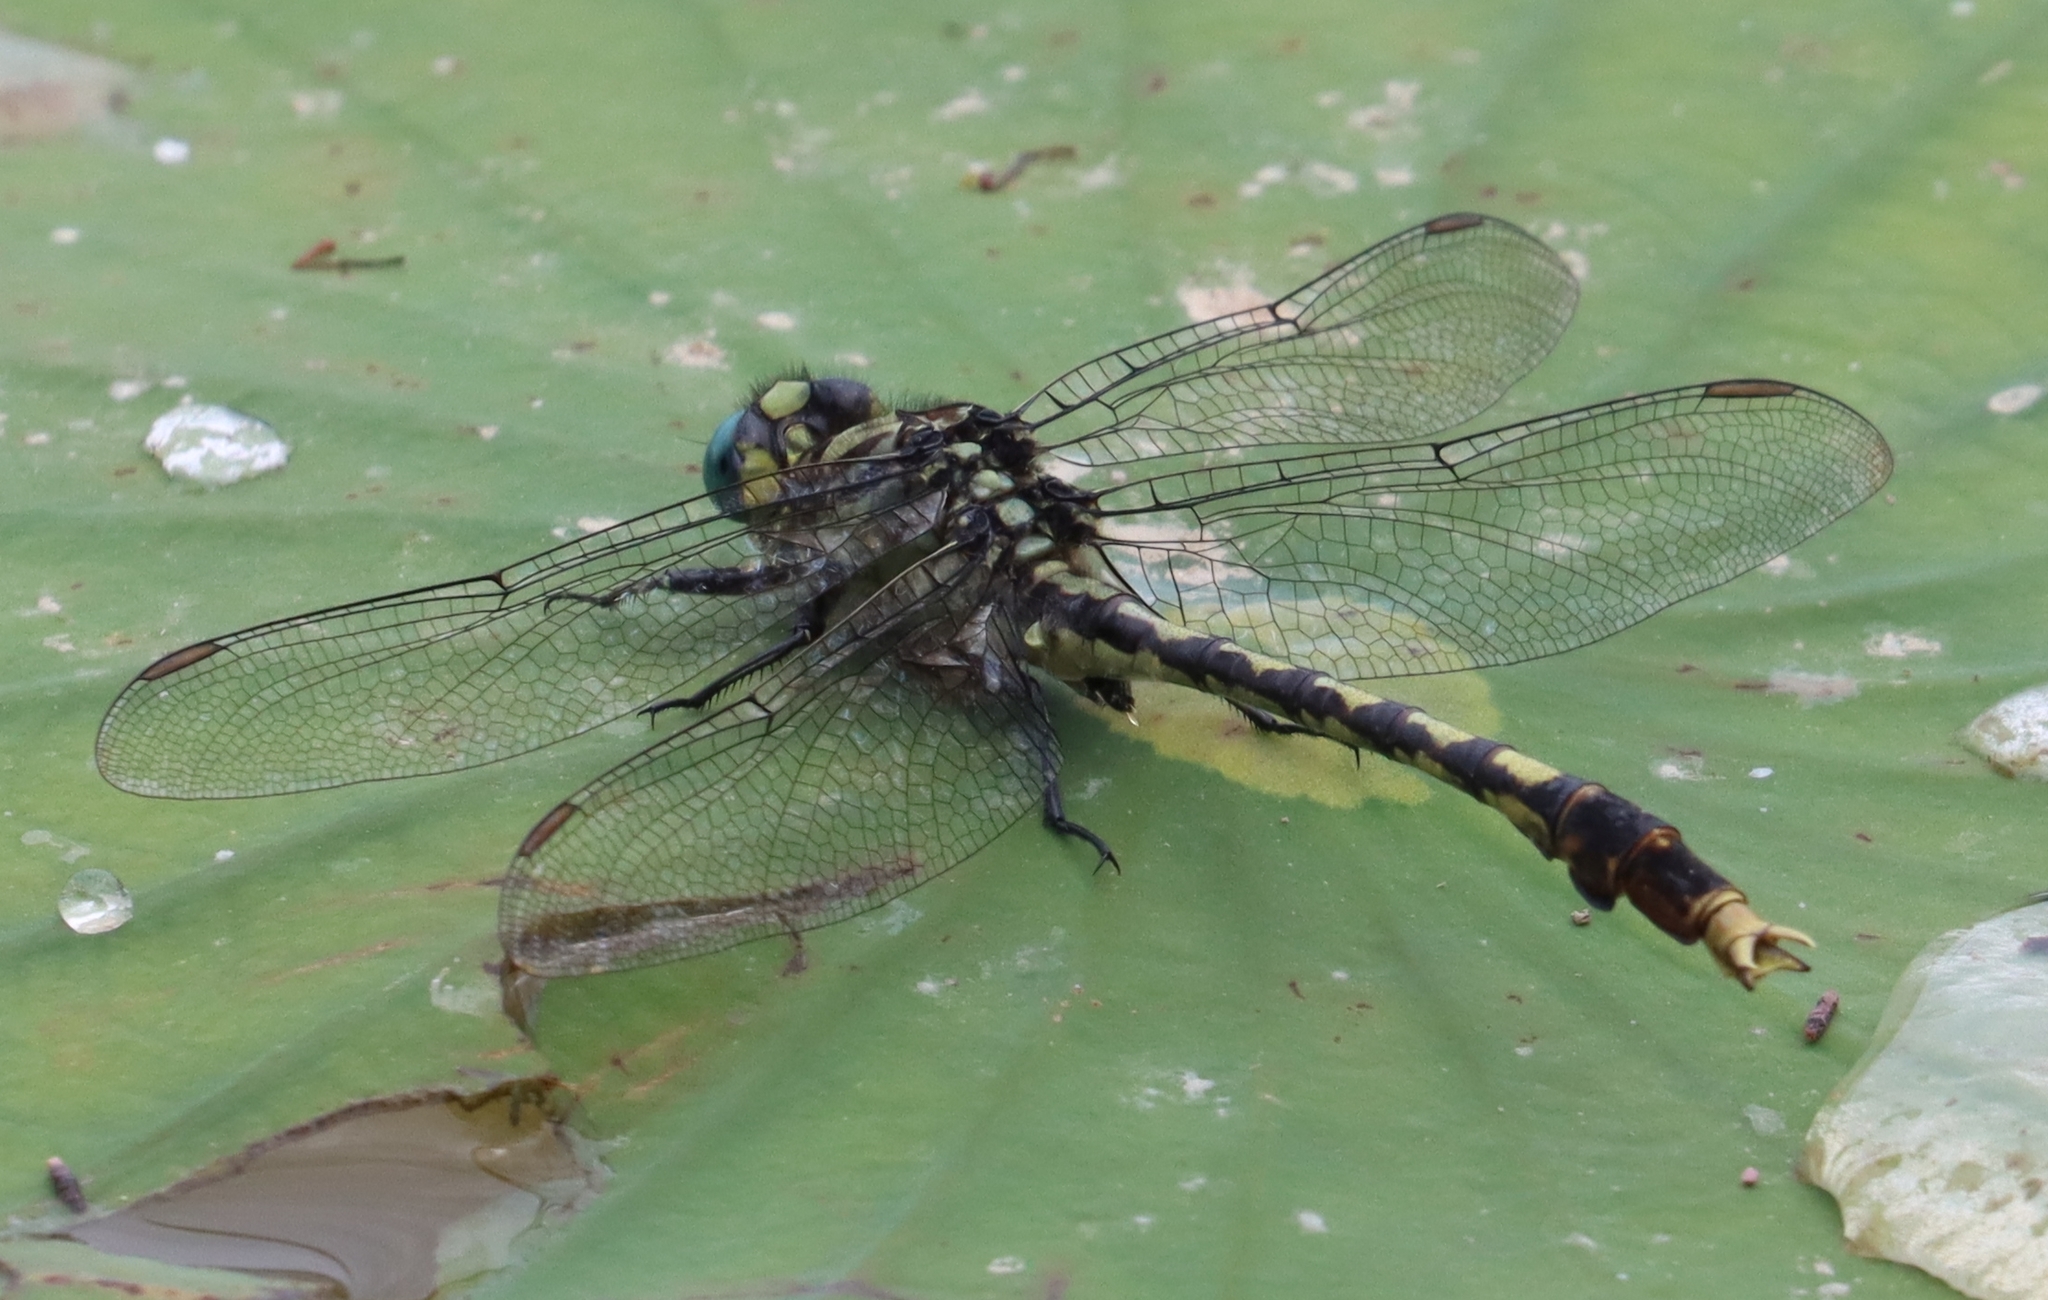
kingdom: Animalia
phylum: Arthropoda
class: Insecta
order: Odonata
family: Gomphidae
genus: Arigomphus
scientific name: Arigomphus villosipes
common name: Unicorn clubtail
